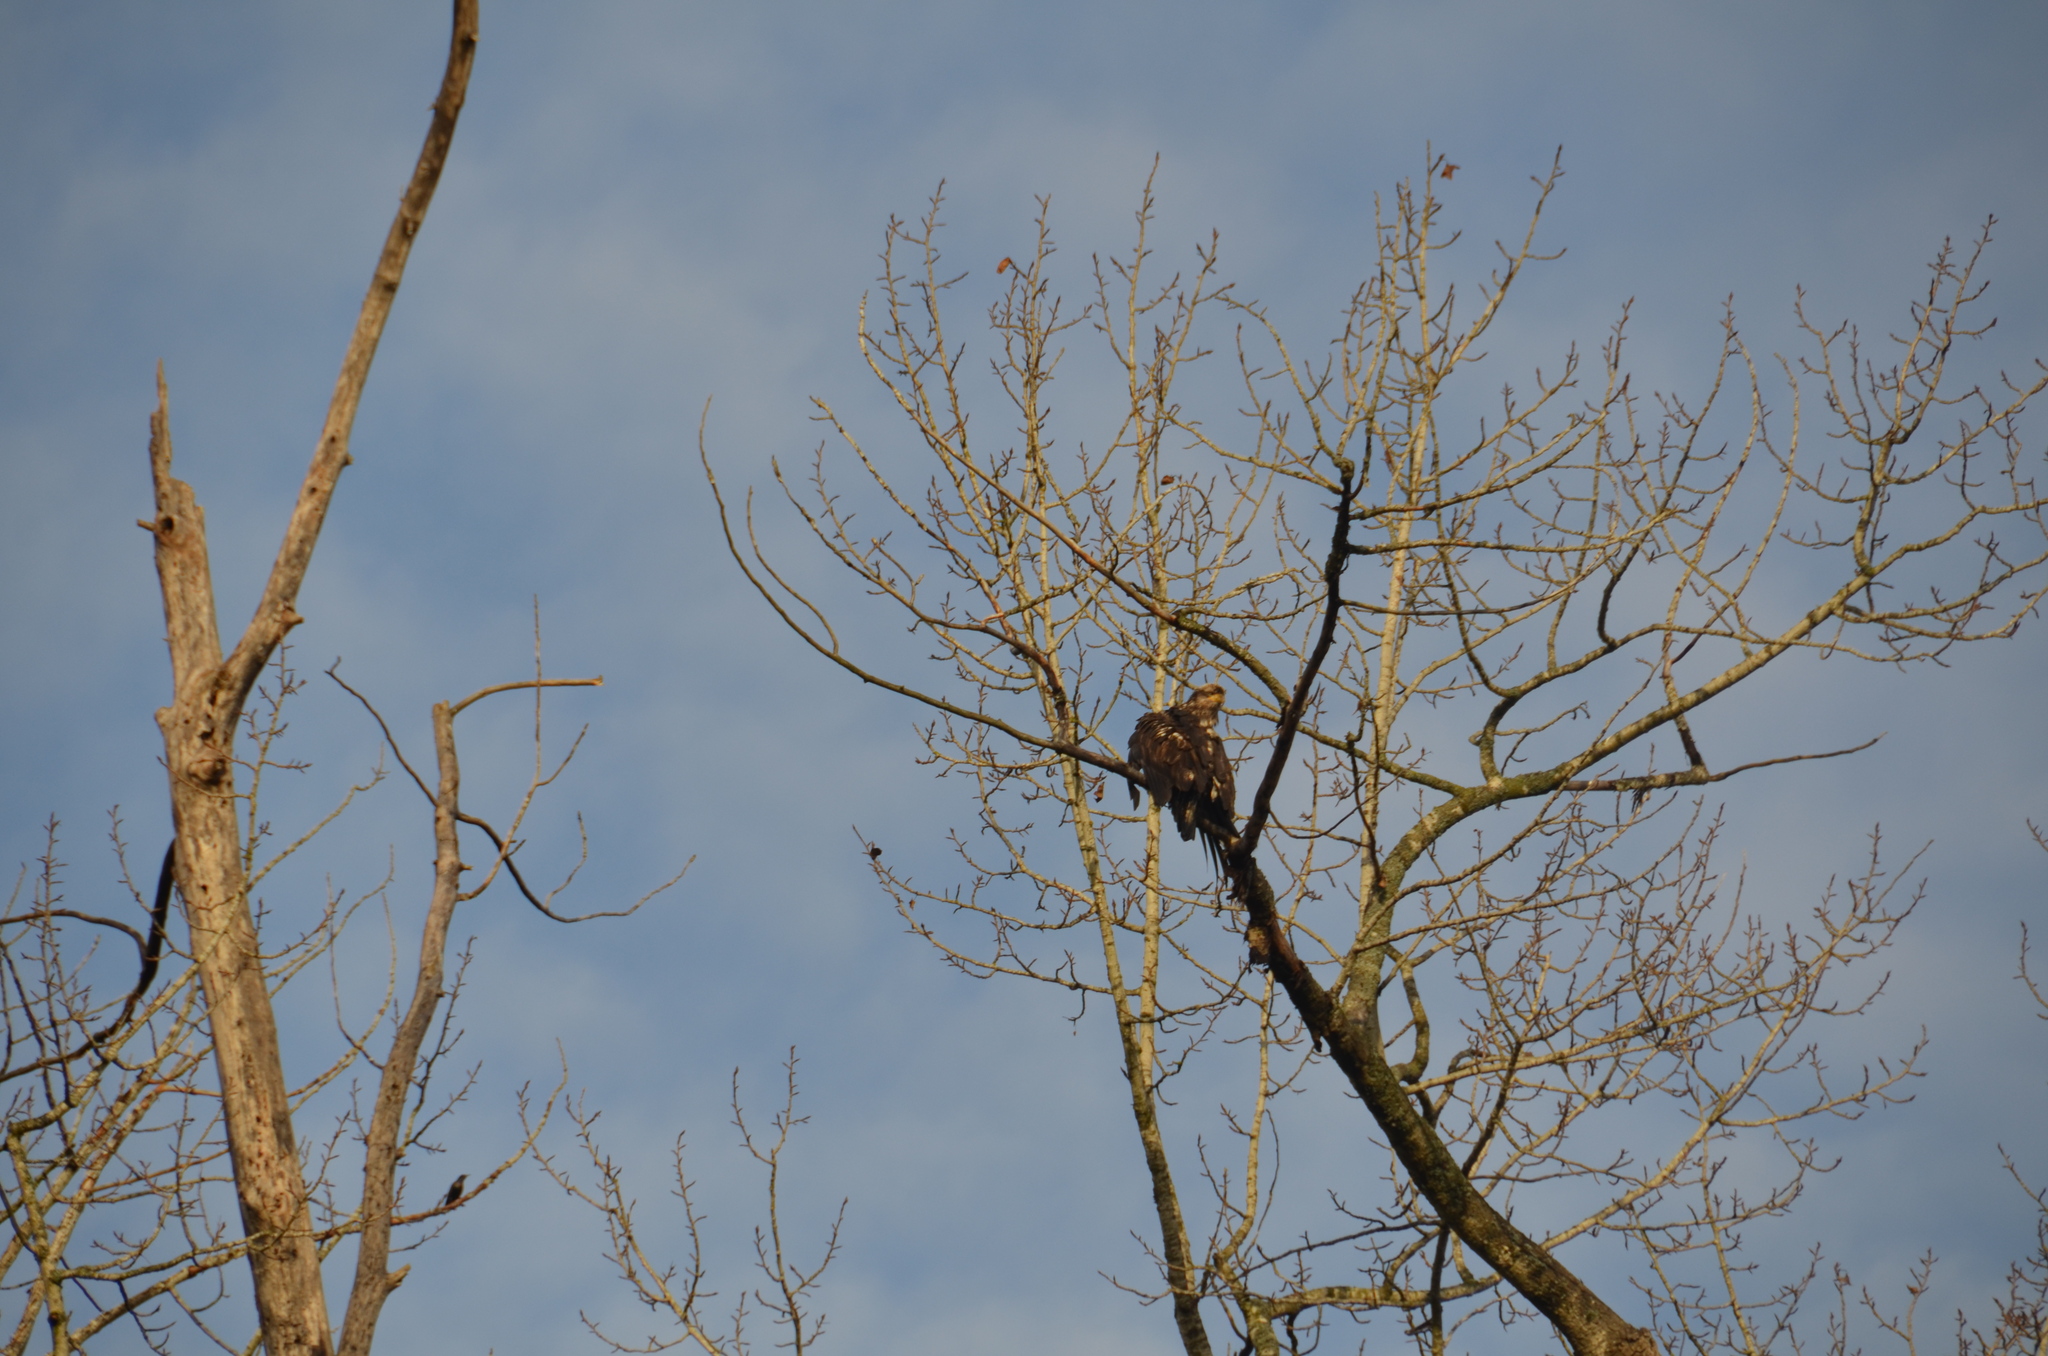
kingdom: Animalia
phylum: Chordata
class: Aves
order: Accipitriformes
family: Accipitridae
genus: Haliaeetus
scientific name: Haliaeetus leucocephalus
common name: Bald eagle
